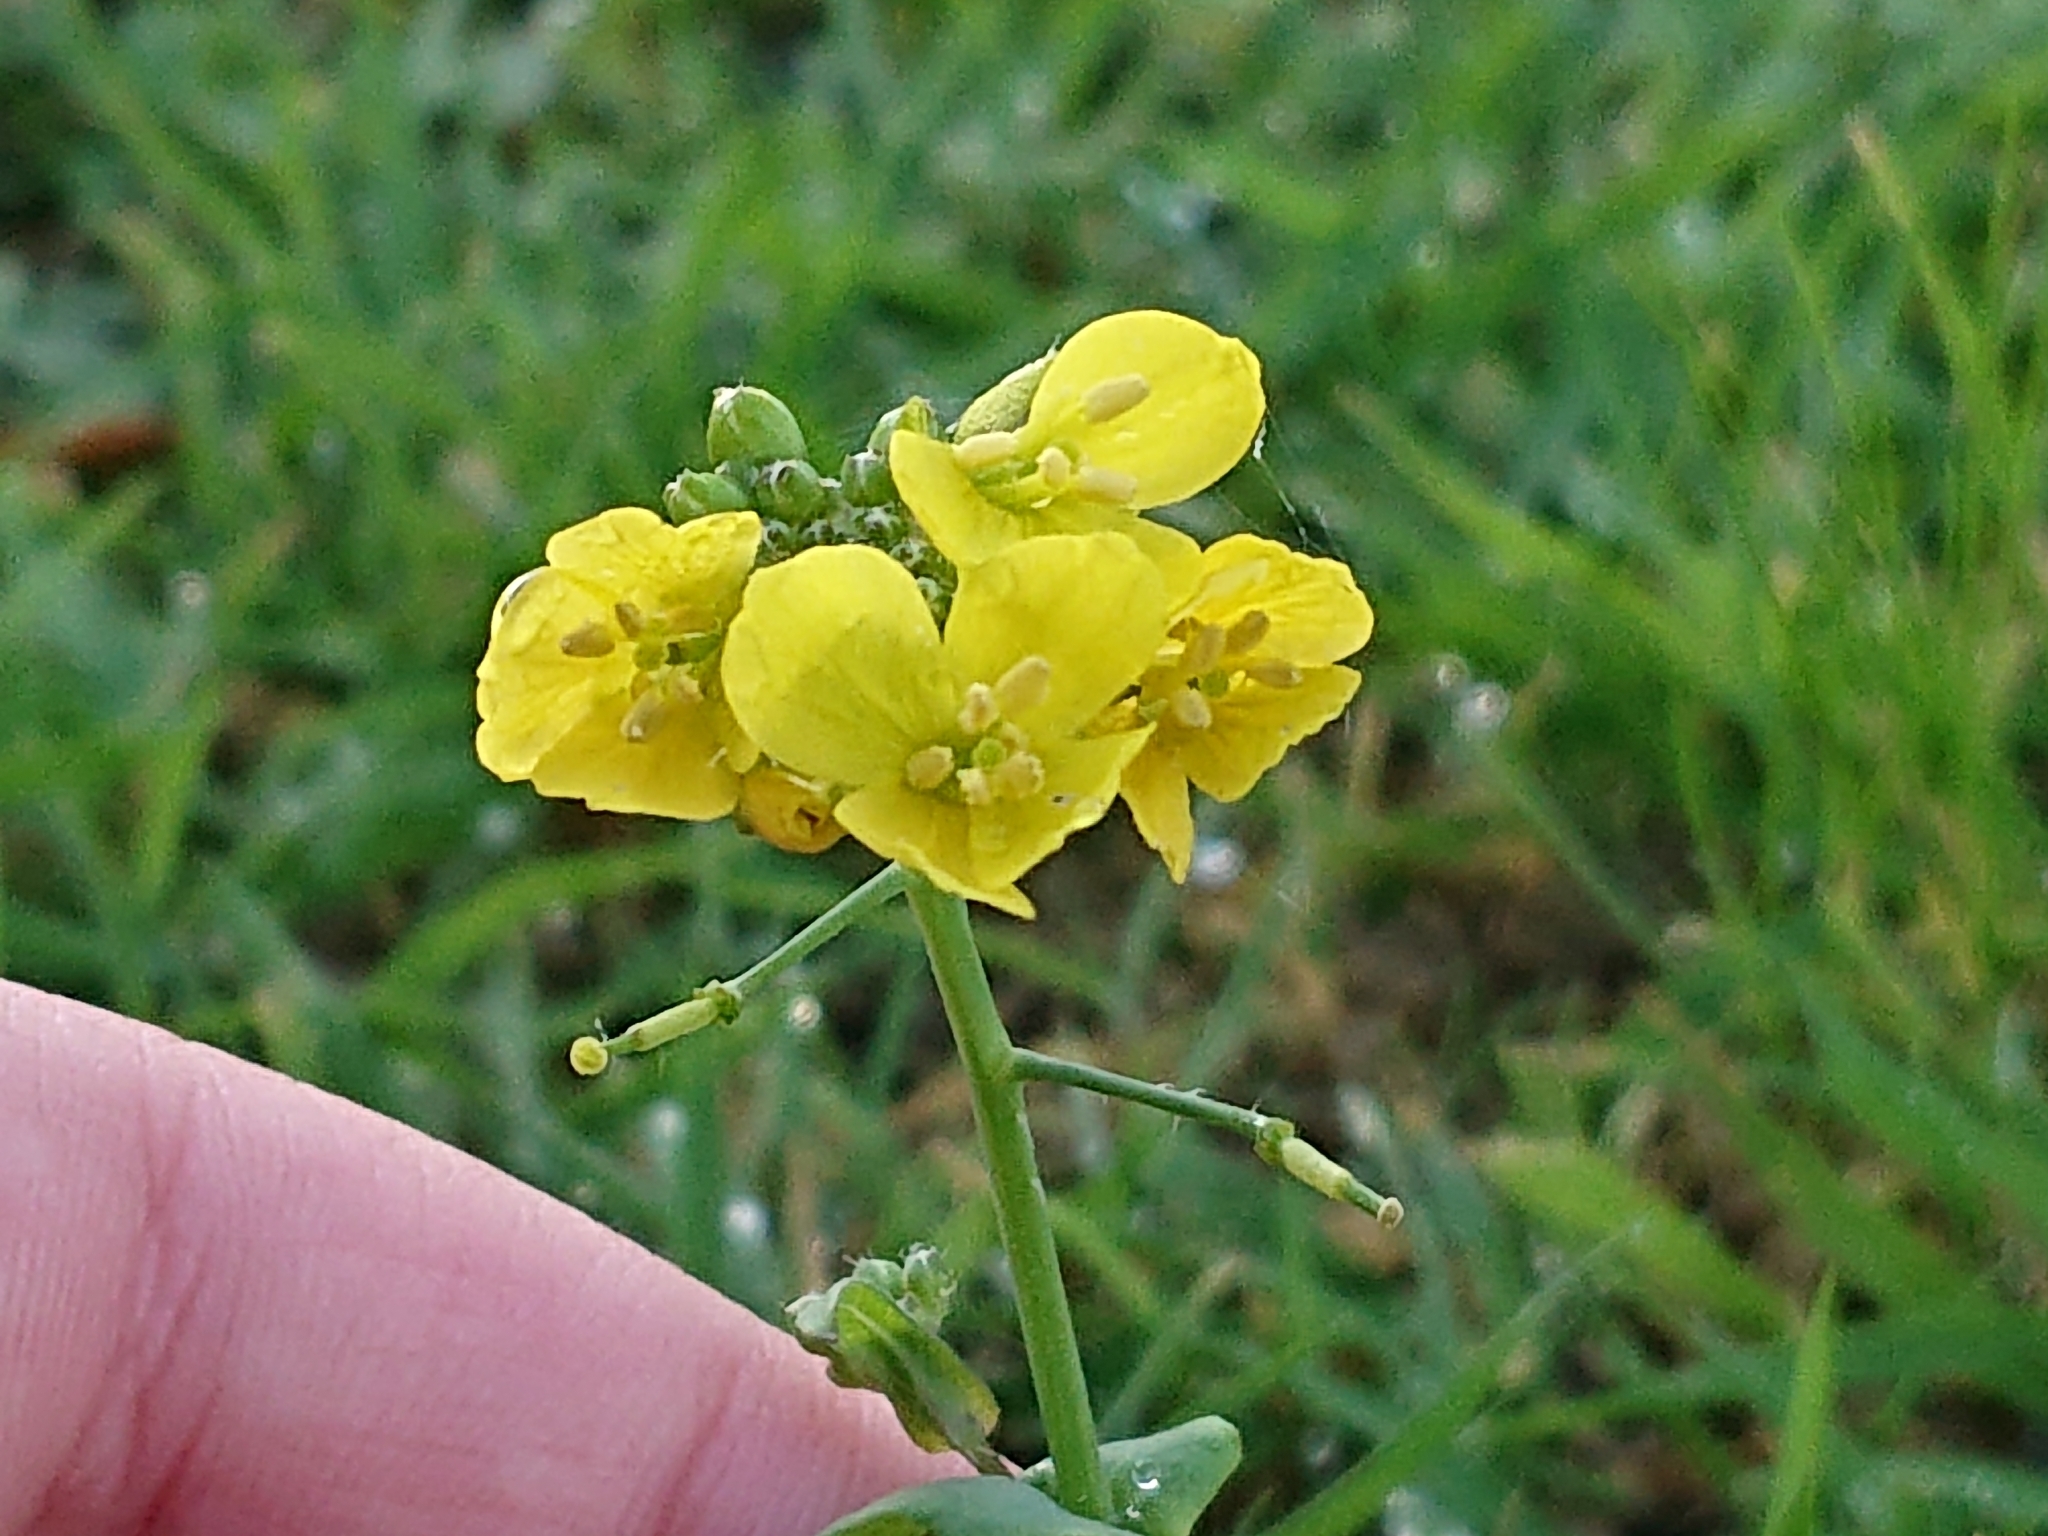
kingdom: Plantae
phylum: Tracheophyta
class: Magnoliopsida
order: Brassicales
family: Brassicaceae
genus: Brassica
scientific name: Brassica rapa
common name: Field mustard
